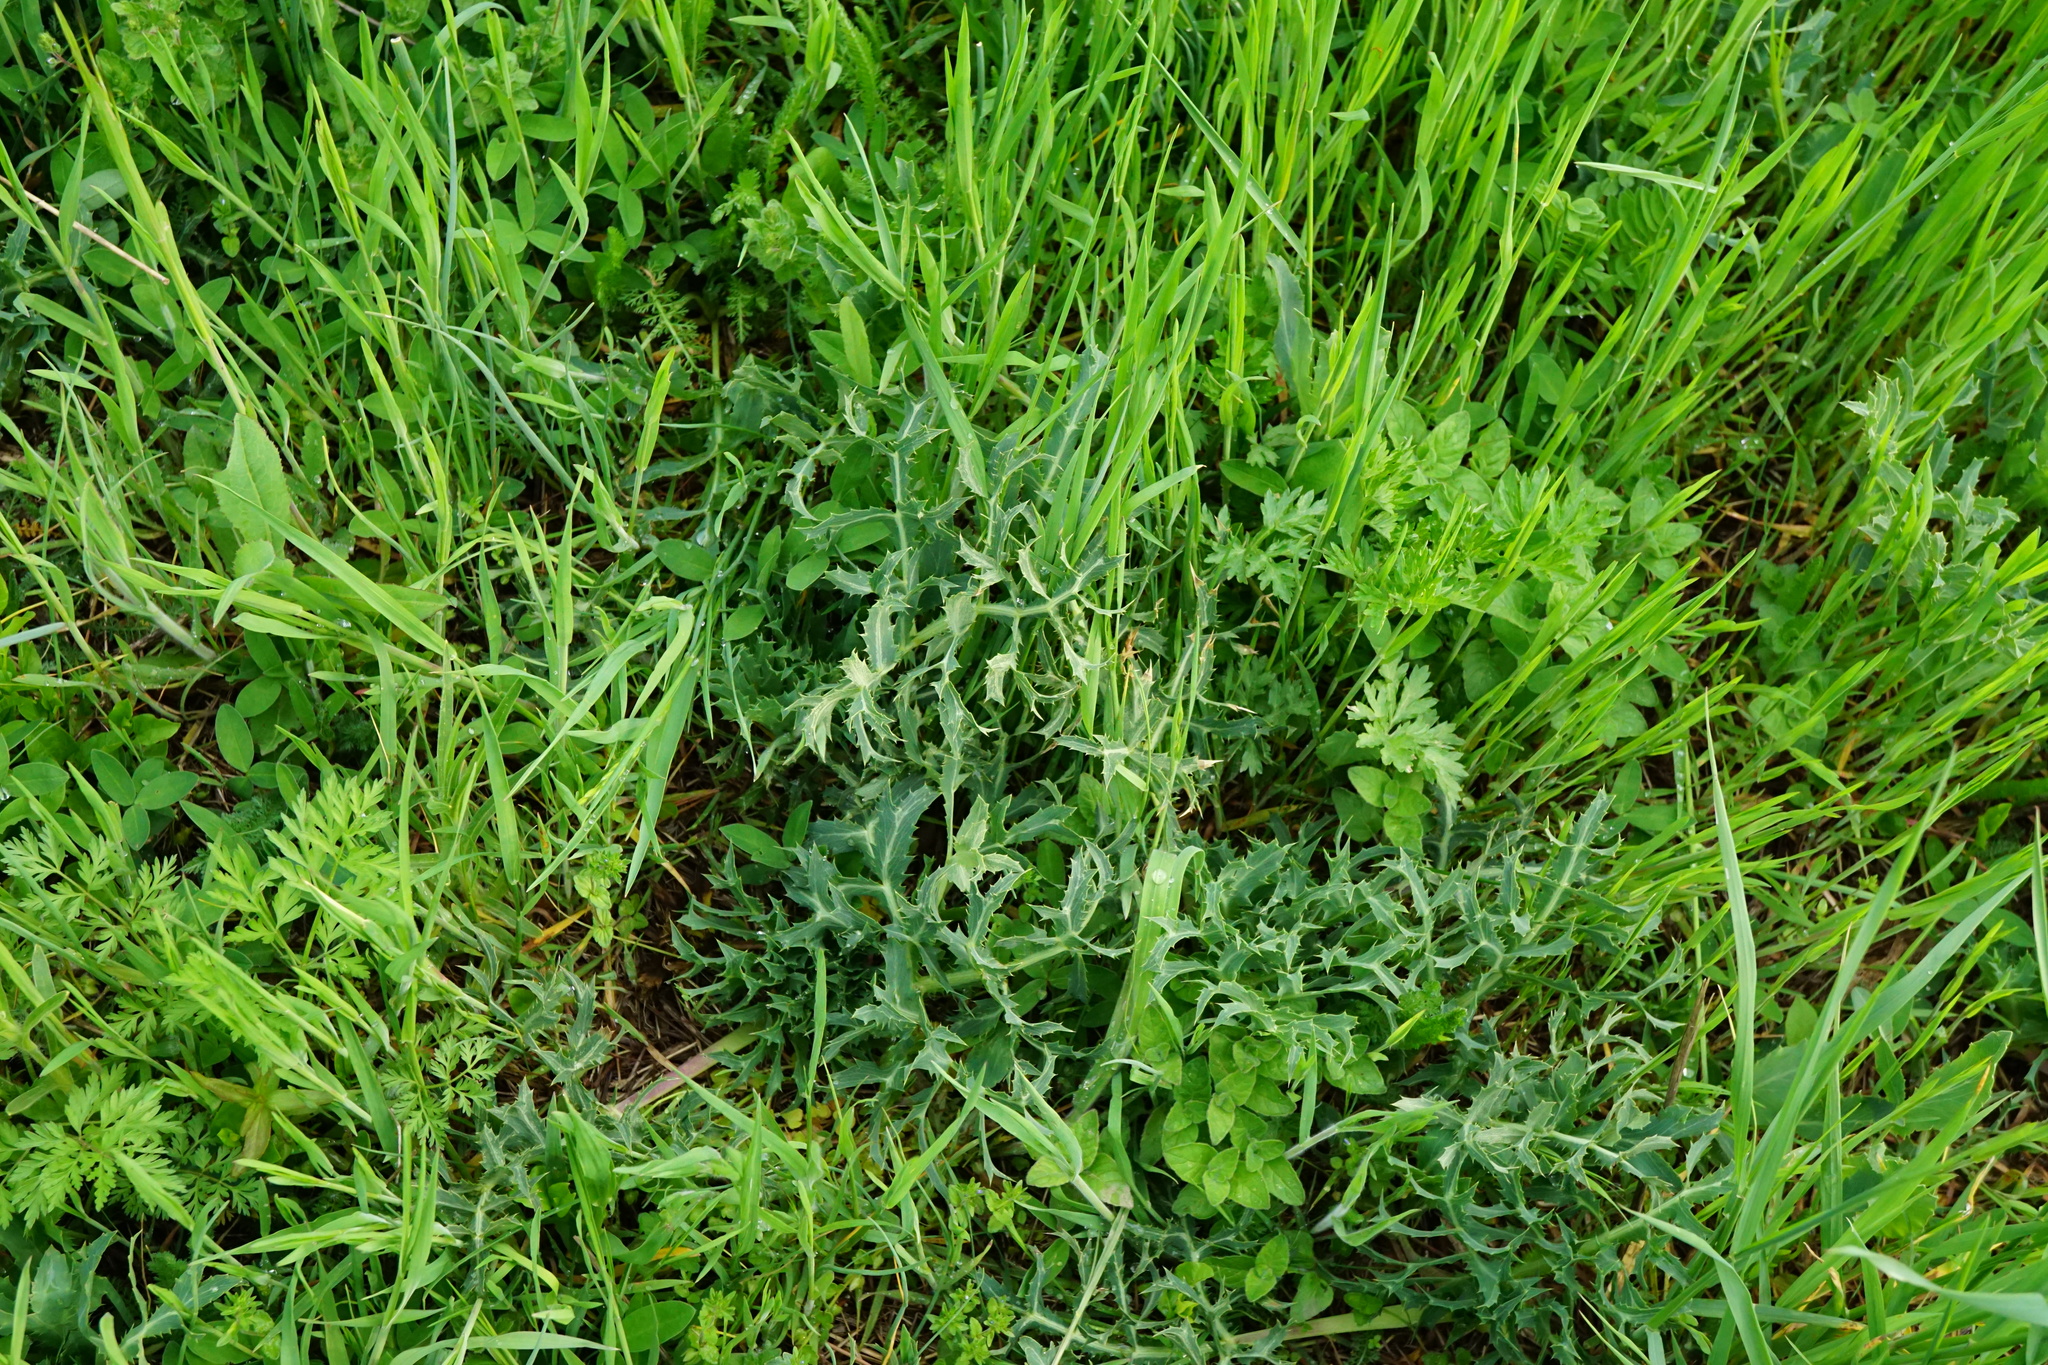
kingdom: Plantae
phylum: Tracheophyta
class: Magnoliopsida
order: Apiales
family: Apiaceae
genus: Eryngium
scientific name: Eryngium campestre
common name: Field eryngo
